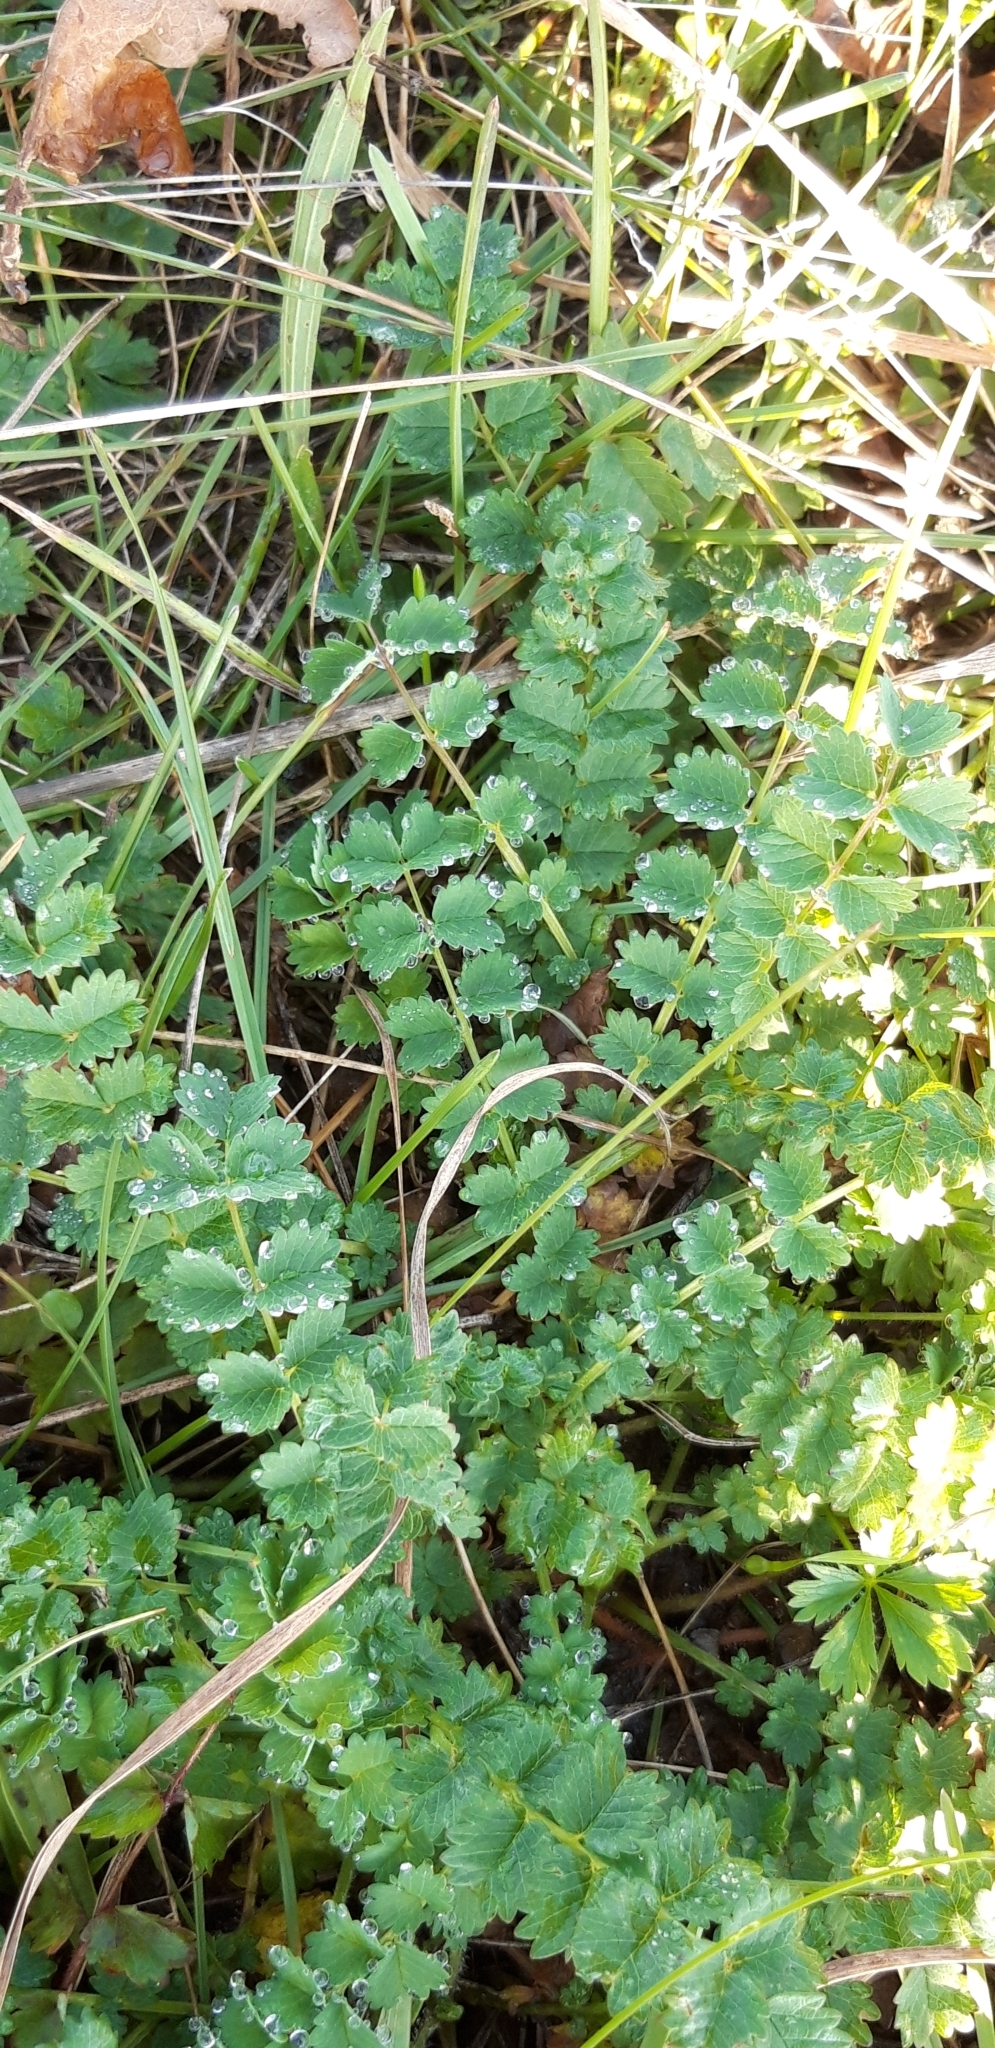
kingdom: Plantae
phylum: Tracheophyta
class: Magnoliopsida
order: Rosales
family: Rosaceae
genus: Poterium
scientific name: Poterium sanguisorba
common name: Salad burnet
